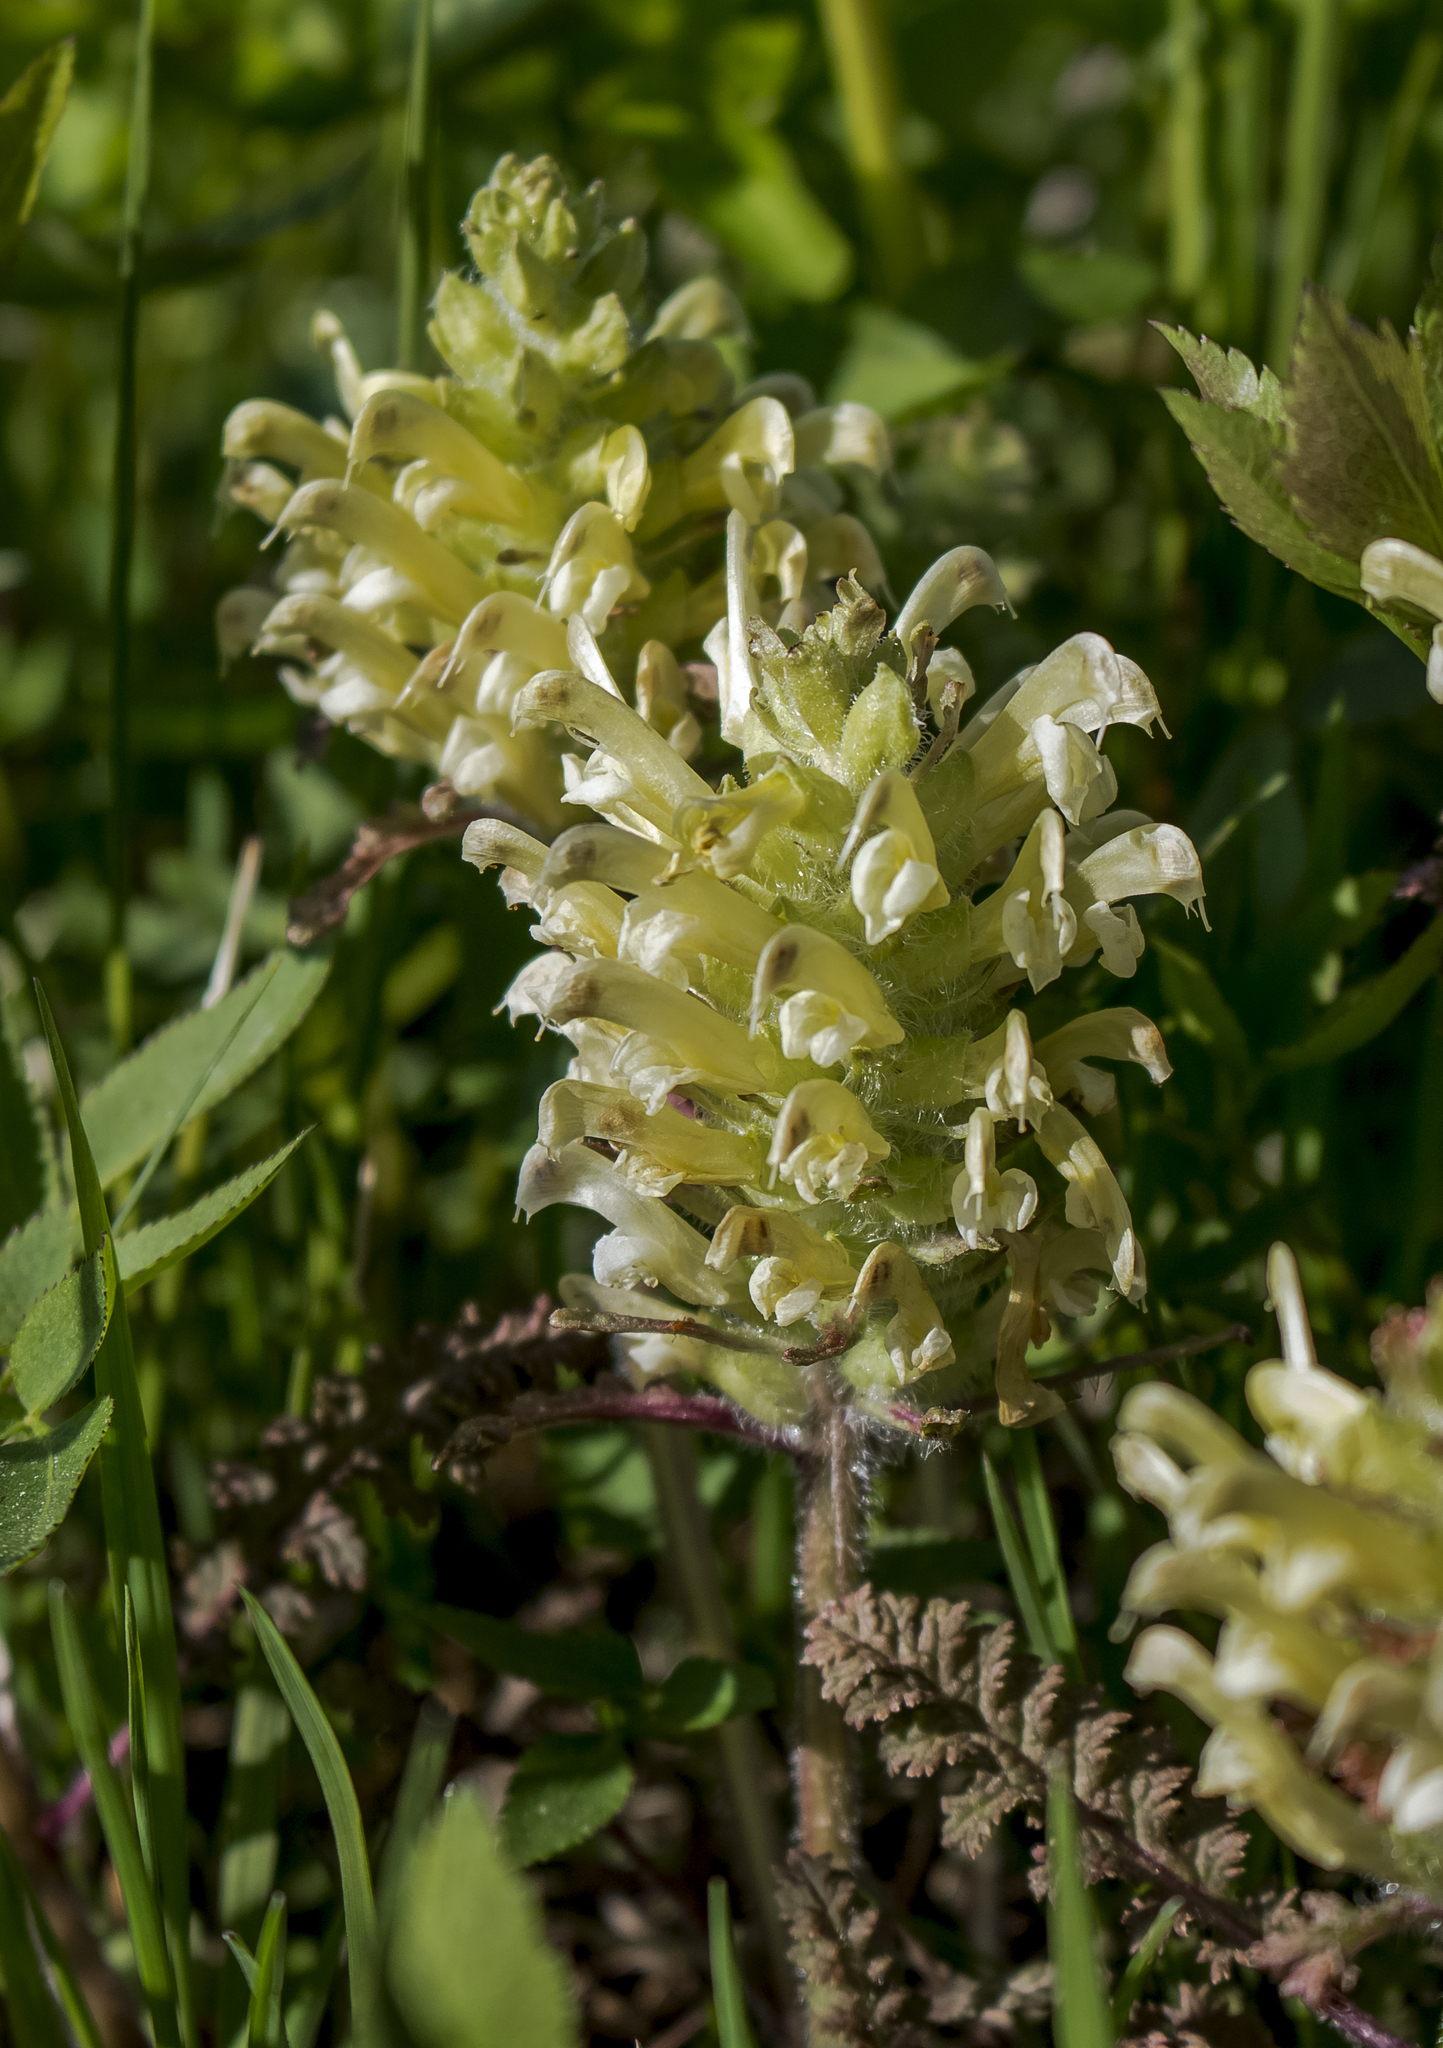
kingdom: Plantae
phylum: Tracheophyta
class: Magnoliopsida
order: Lamiales
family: Orobanchaceae
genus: Pedicularis
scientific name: Pedicularis canadensis
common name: Early lousewort
